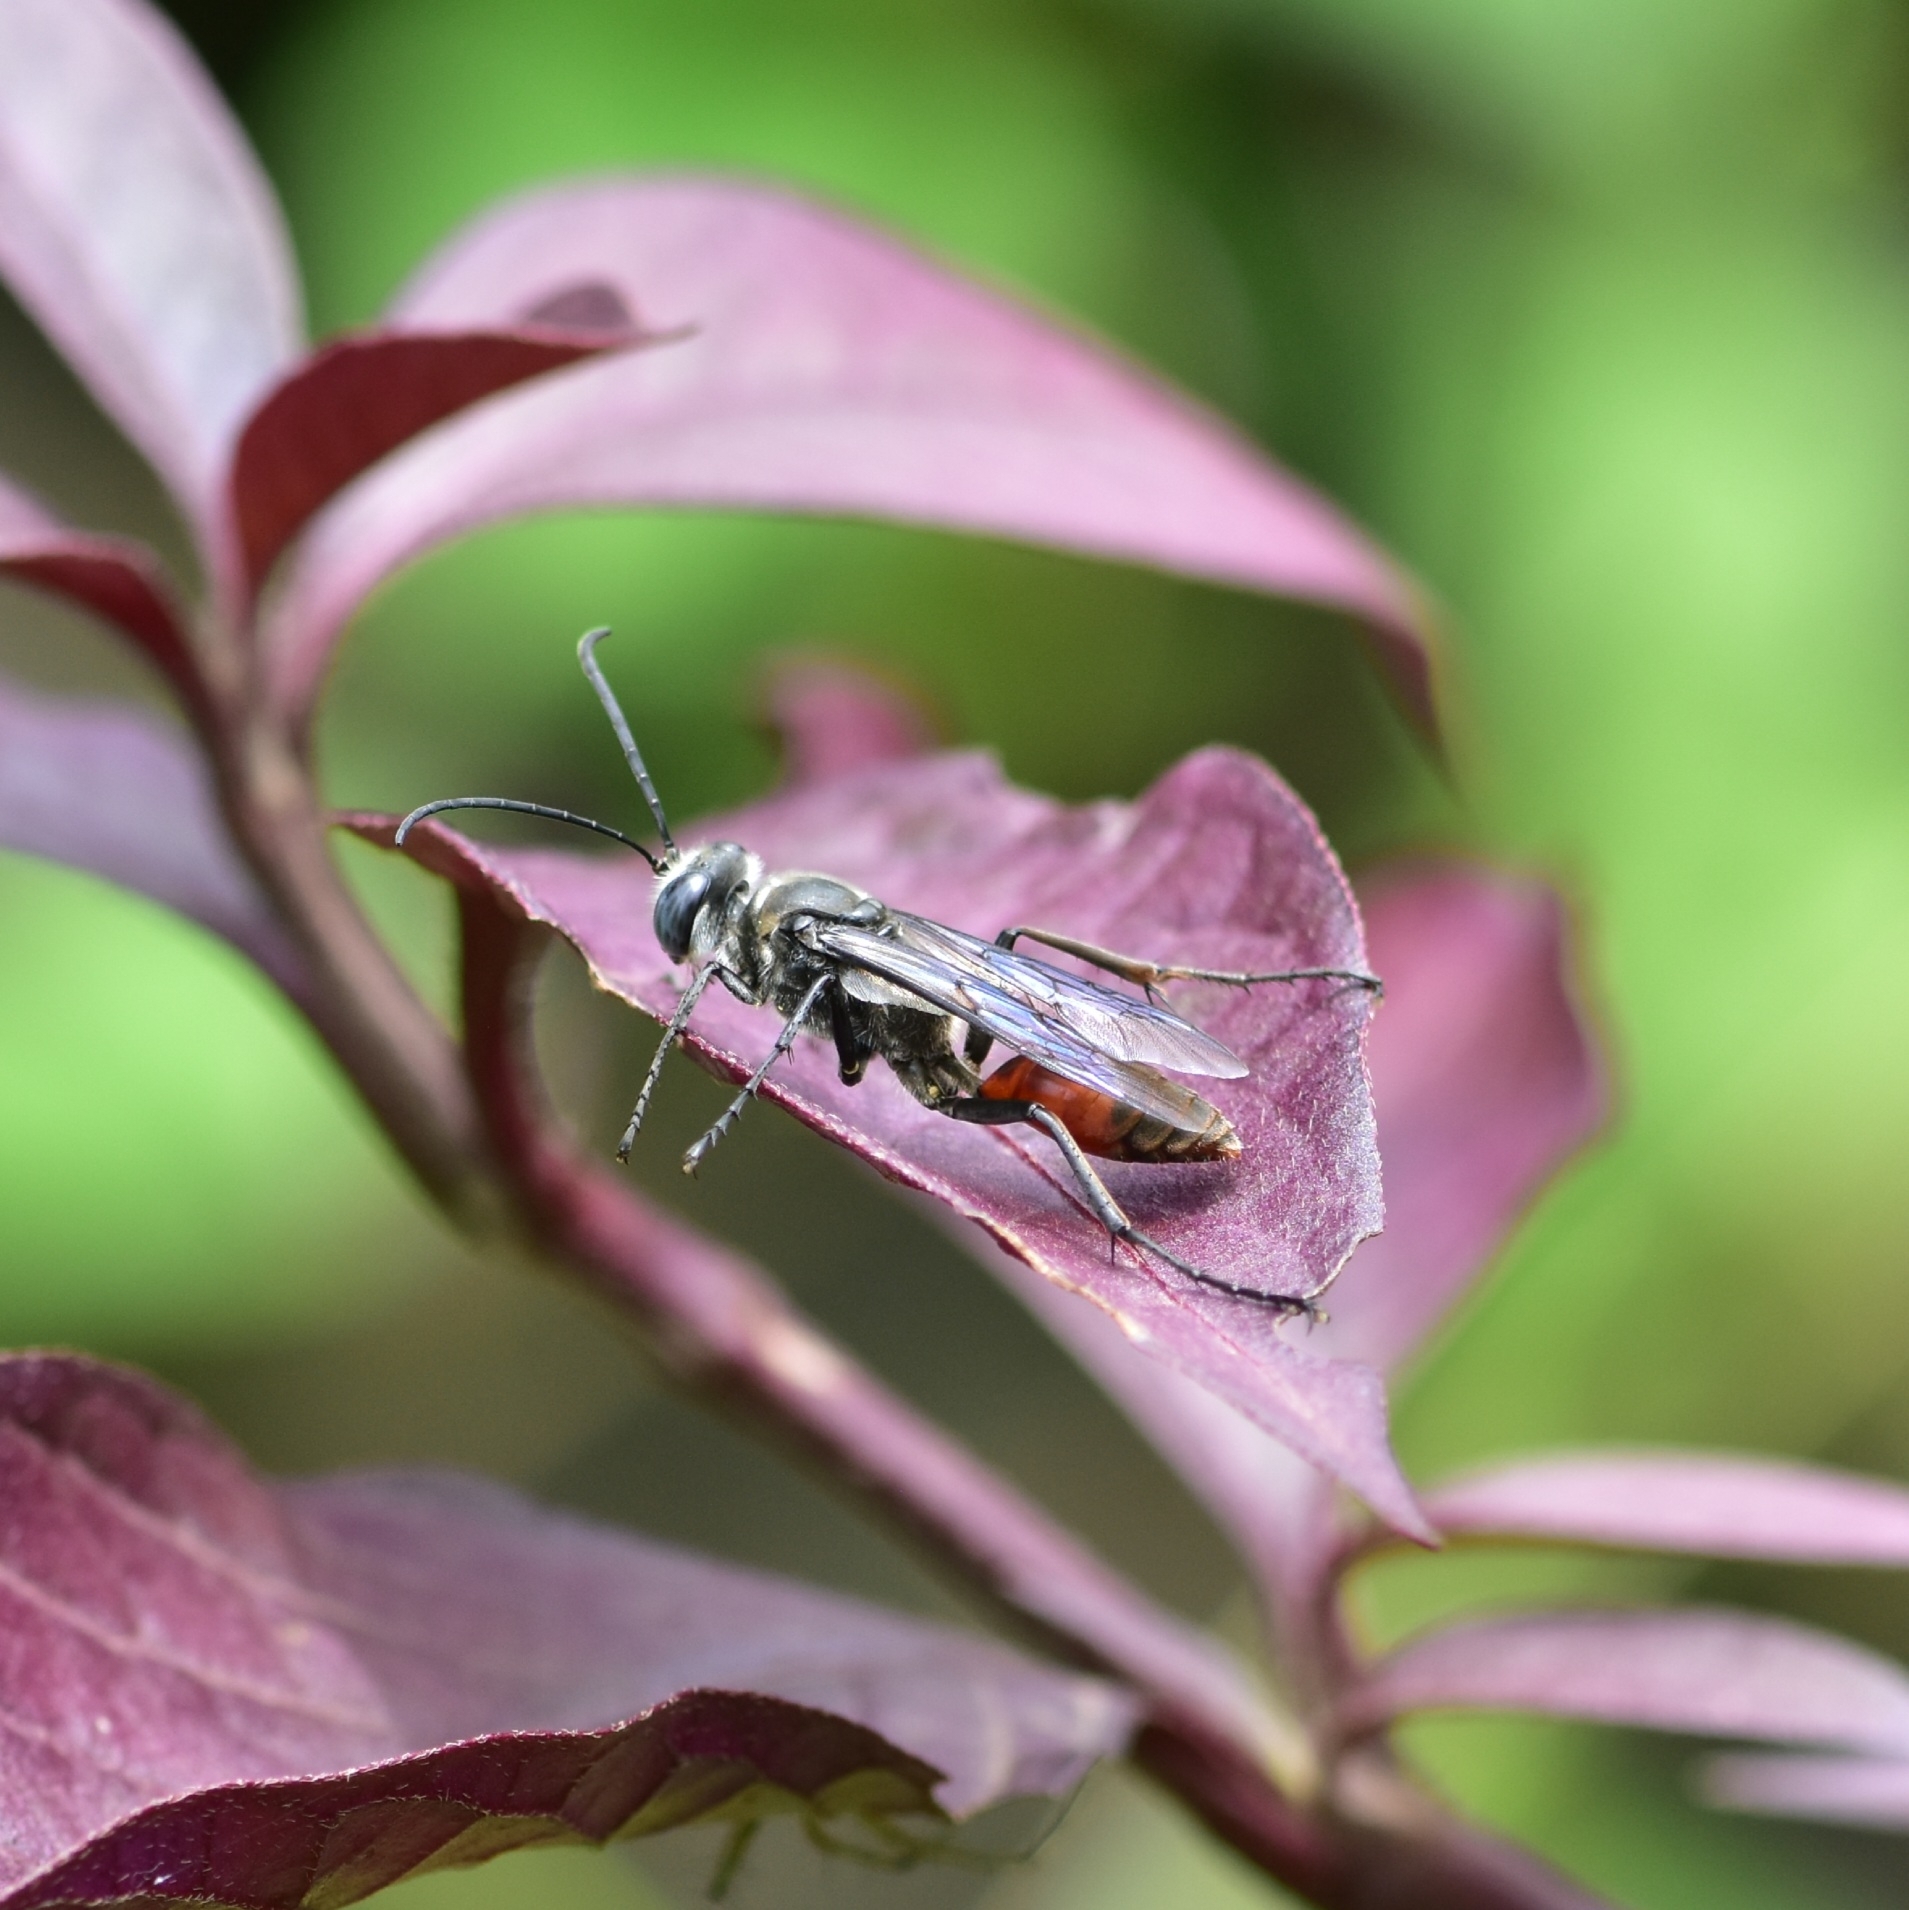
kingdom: Animalia
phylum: Arthropoda
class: Insecta
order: Hymenoptera
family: Sphecidae
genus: Sphex
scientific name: Sphex sericeus
